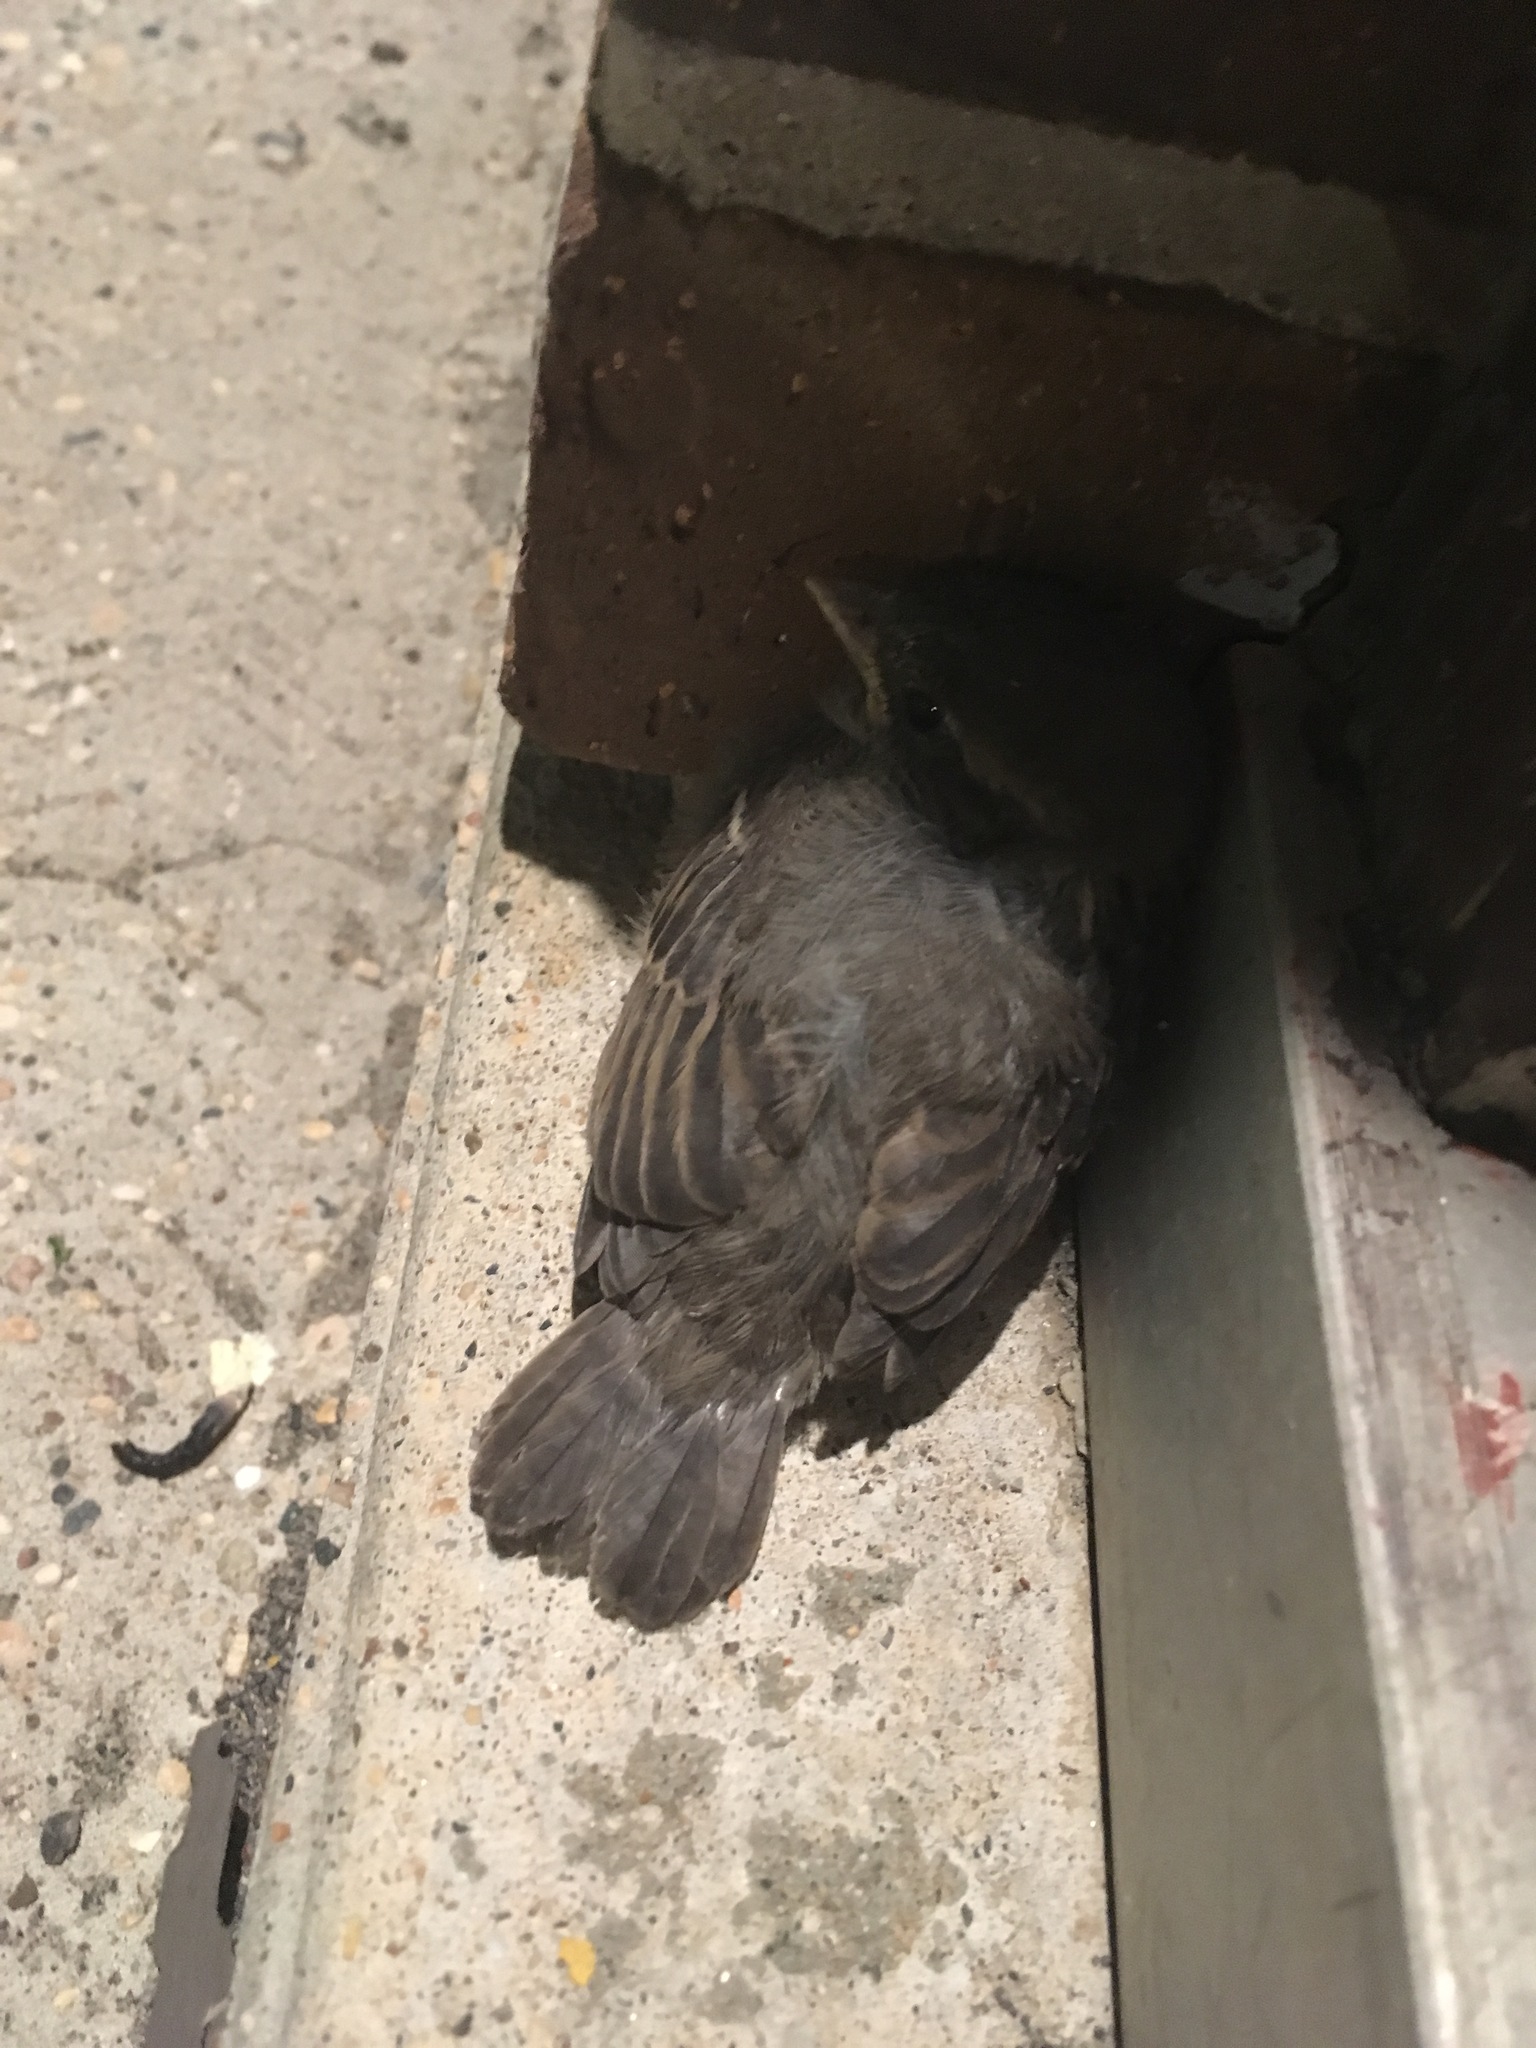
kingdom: Animalia
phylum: Chordata
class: Aves
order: Passeriformes
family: Passeridae
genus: Passer
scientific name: Passer domesticus
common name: House sparrow
